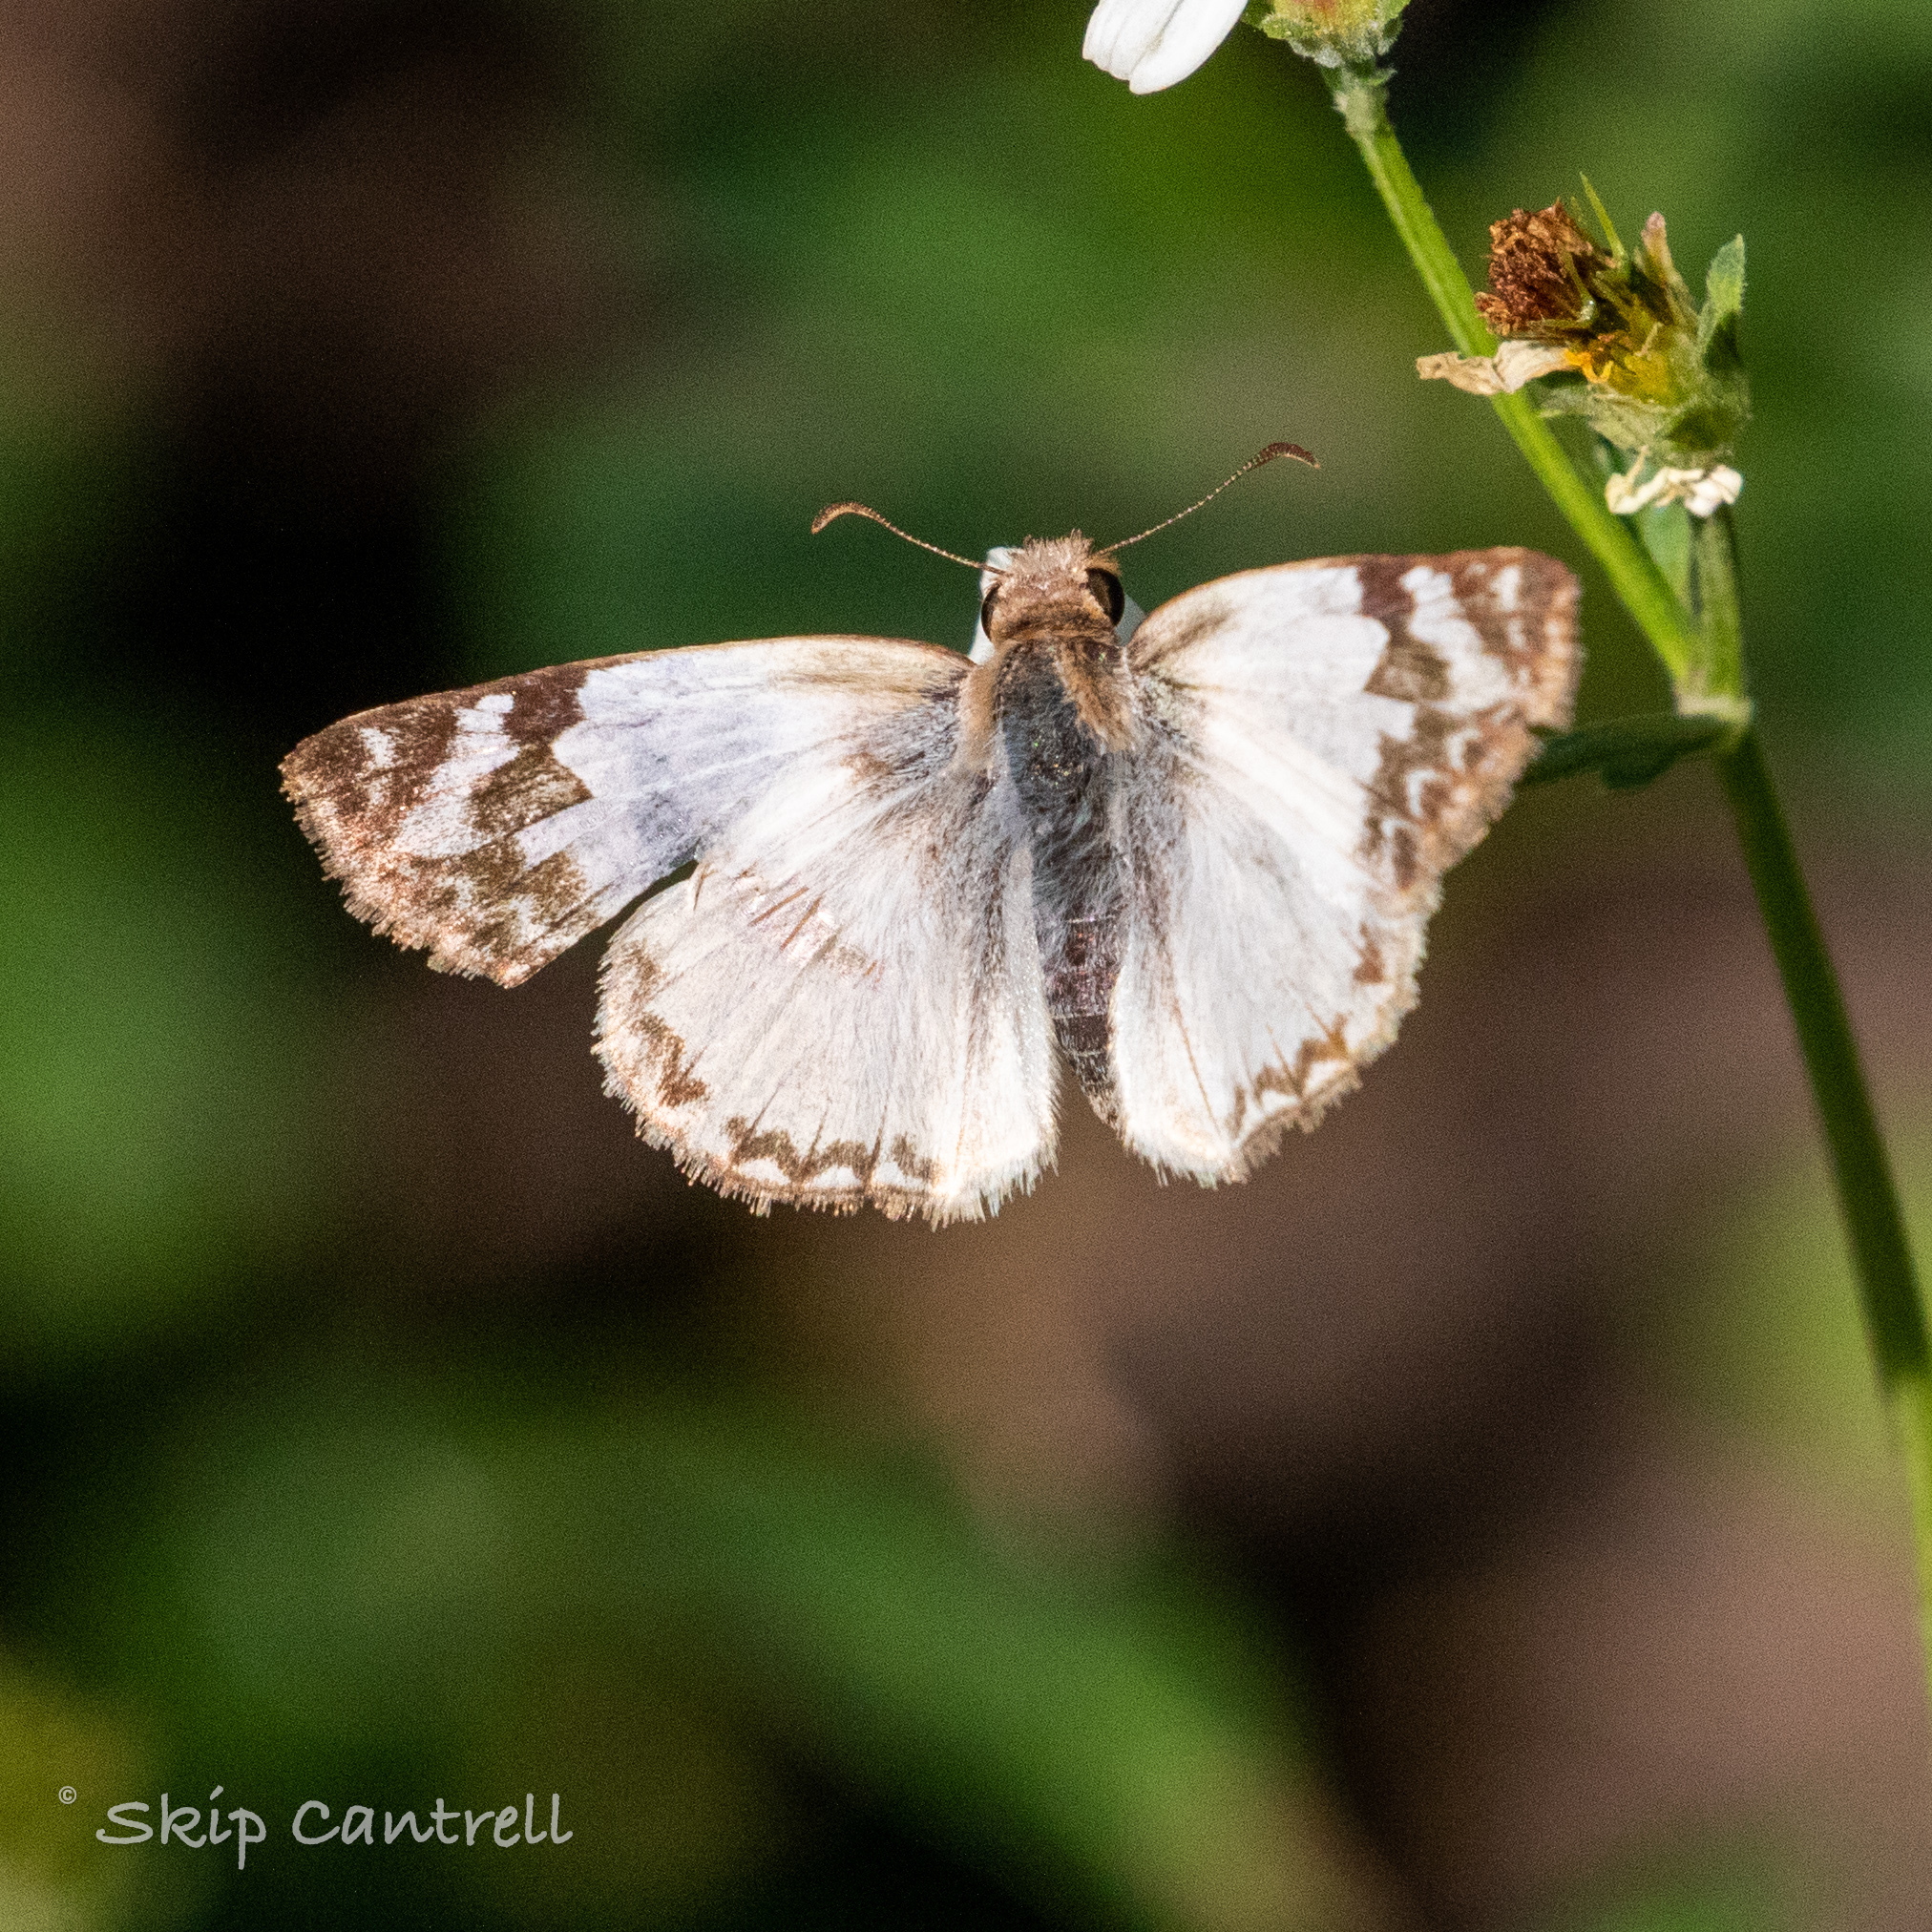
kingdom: Animalia
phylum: Arthropoda
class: Insecta
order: Lepidoptera
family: Hesperiidae
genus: Heliopetes
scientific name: Heliopetes laviana
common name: Laviana white-skipper
